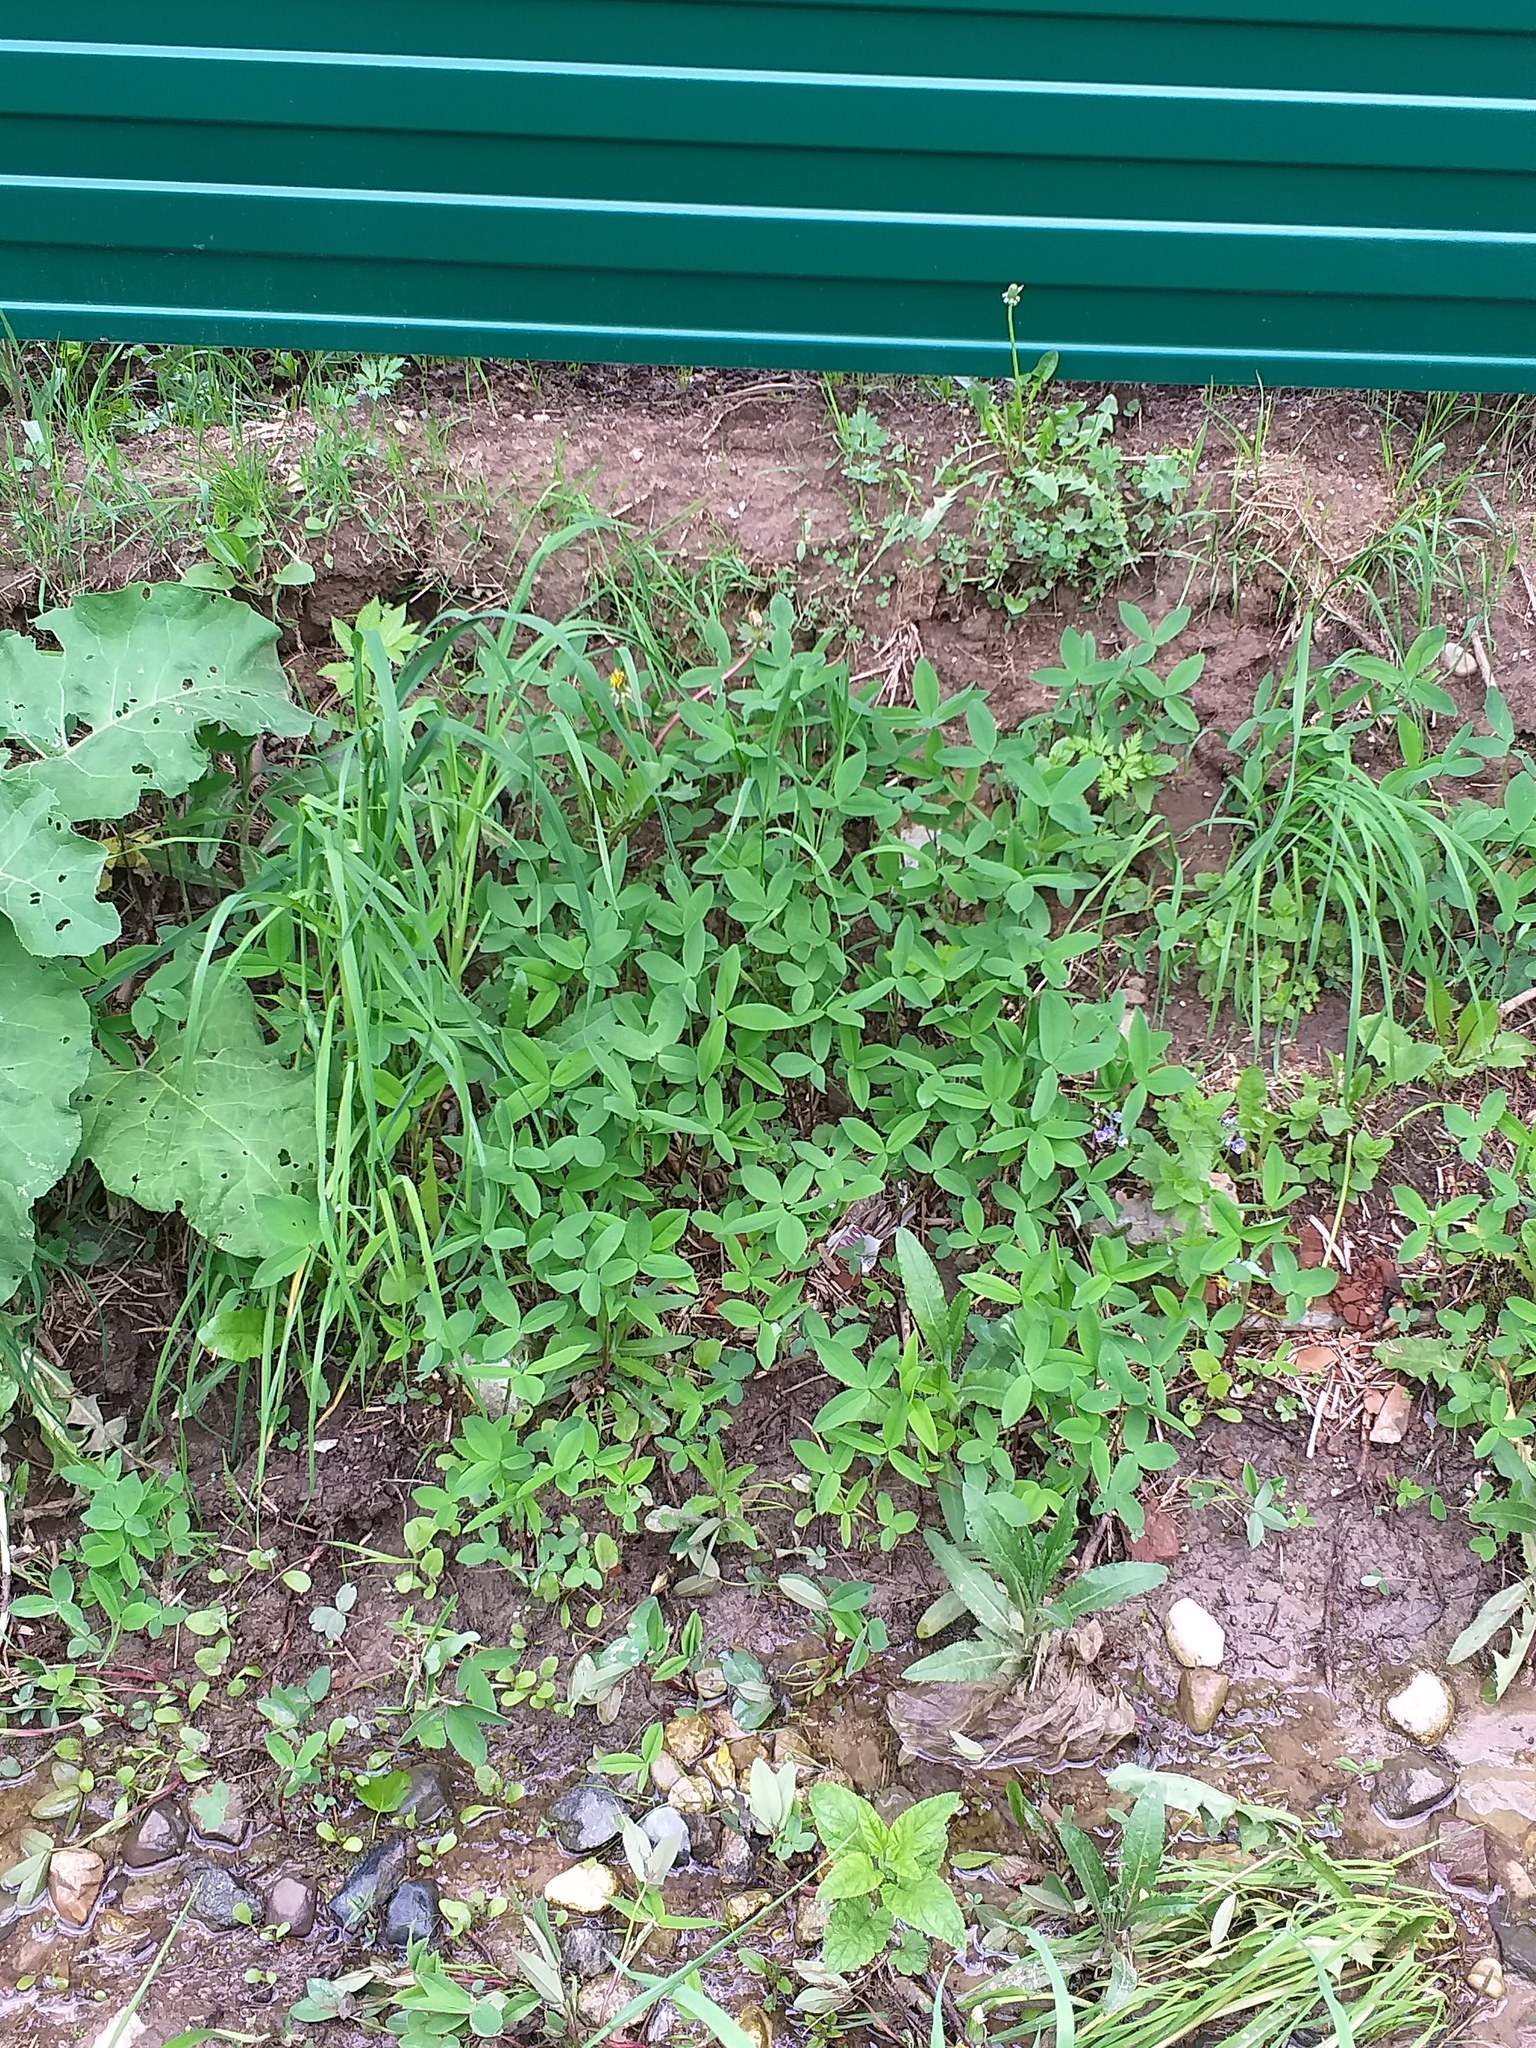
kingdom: Plantae
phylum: Tracheophyta
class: Magnoliopsida
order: Fabales
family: Fabaceae
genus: Trifolium
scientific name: Trifolium medium
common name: Zigzag clover
